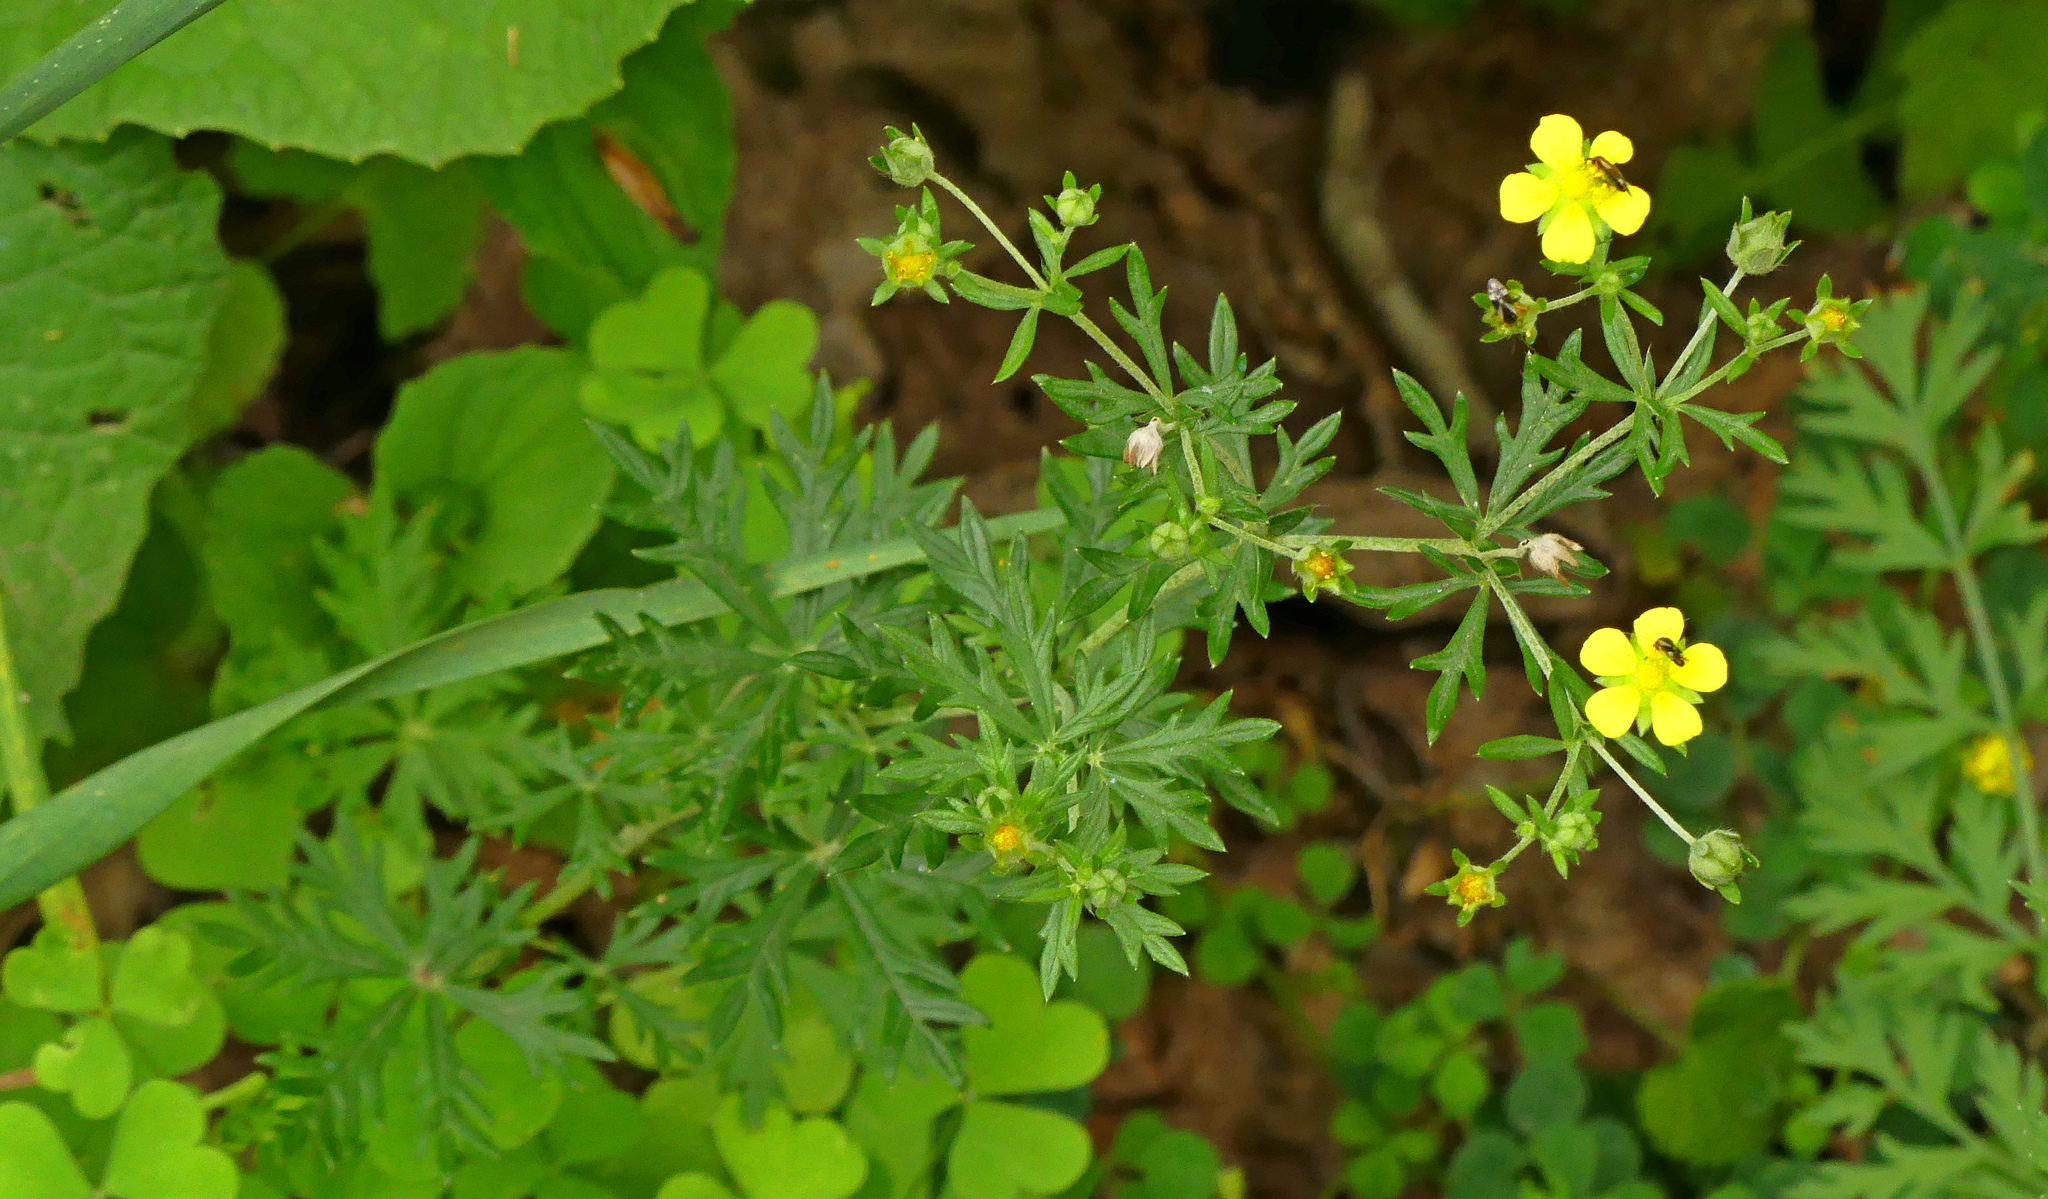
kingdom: Plantae
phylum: Tracheophyta
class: Magnoliopsida
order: Rosales
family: Rosaceae
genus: Potentilla
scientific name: Potentilla argentea
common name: Hoary cinquefoil
